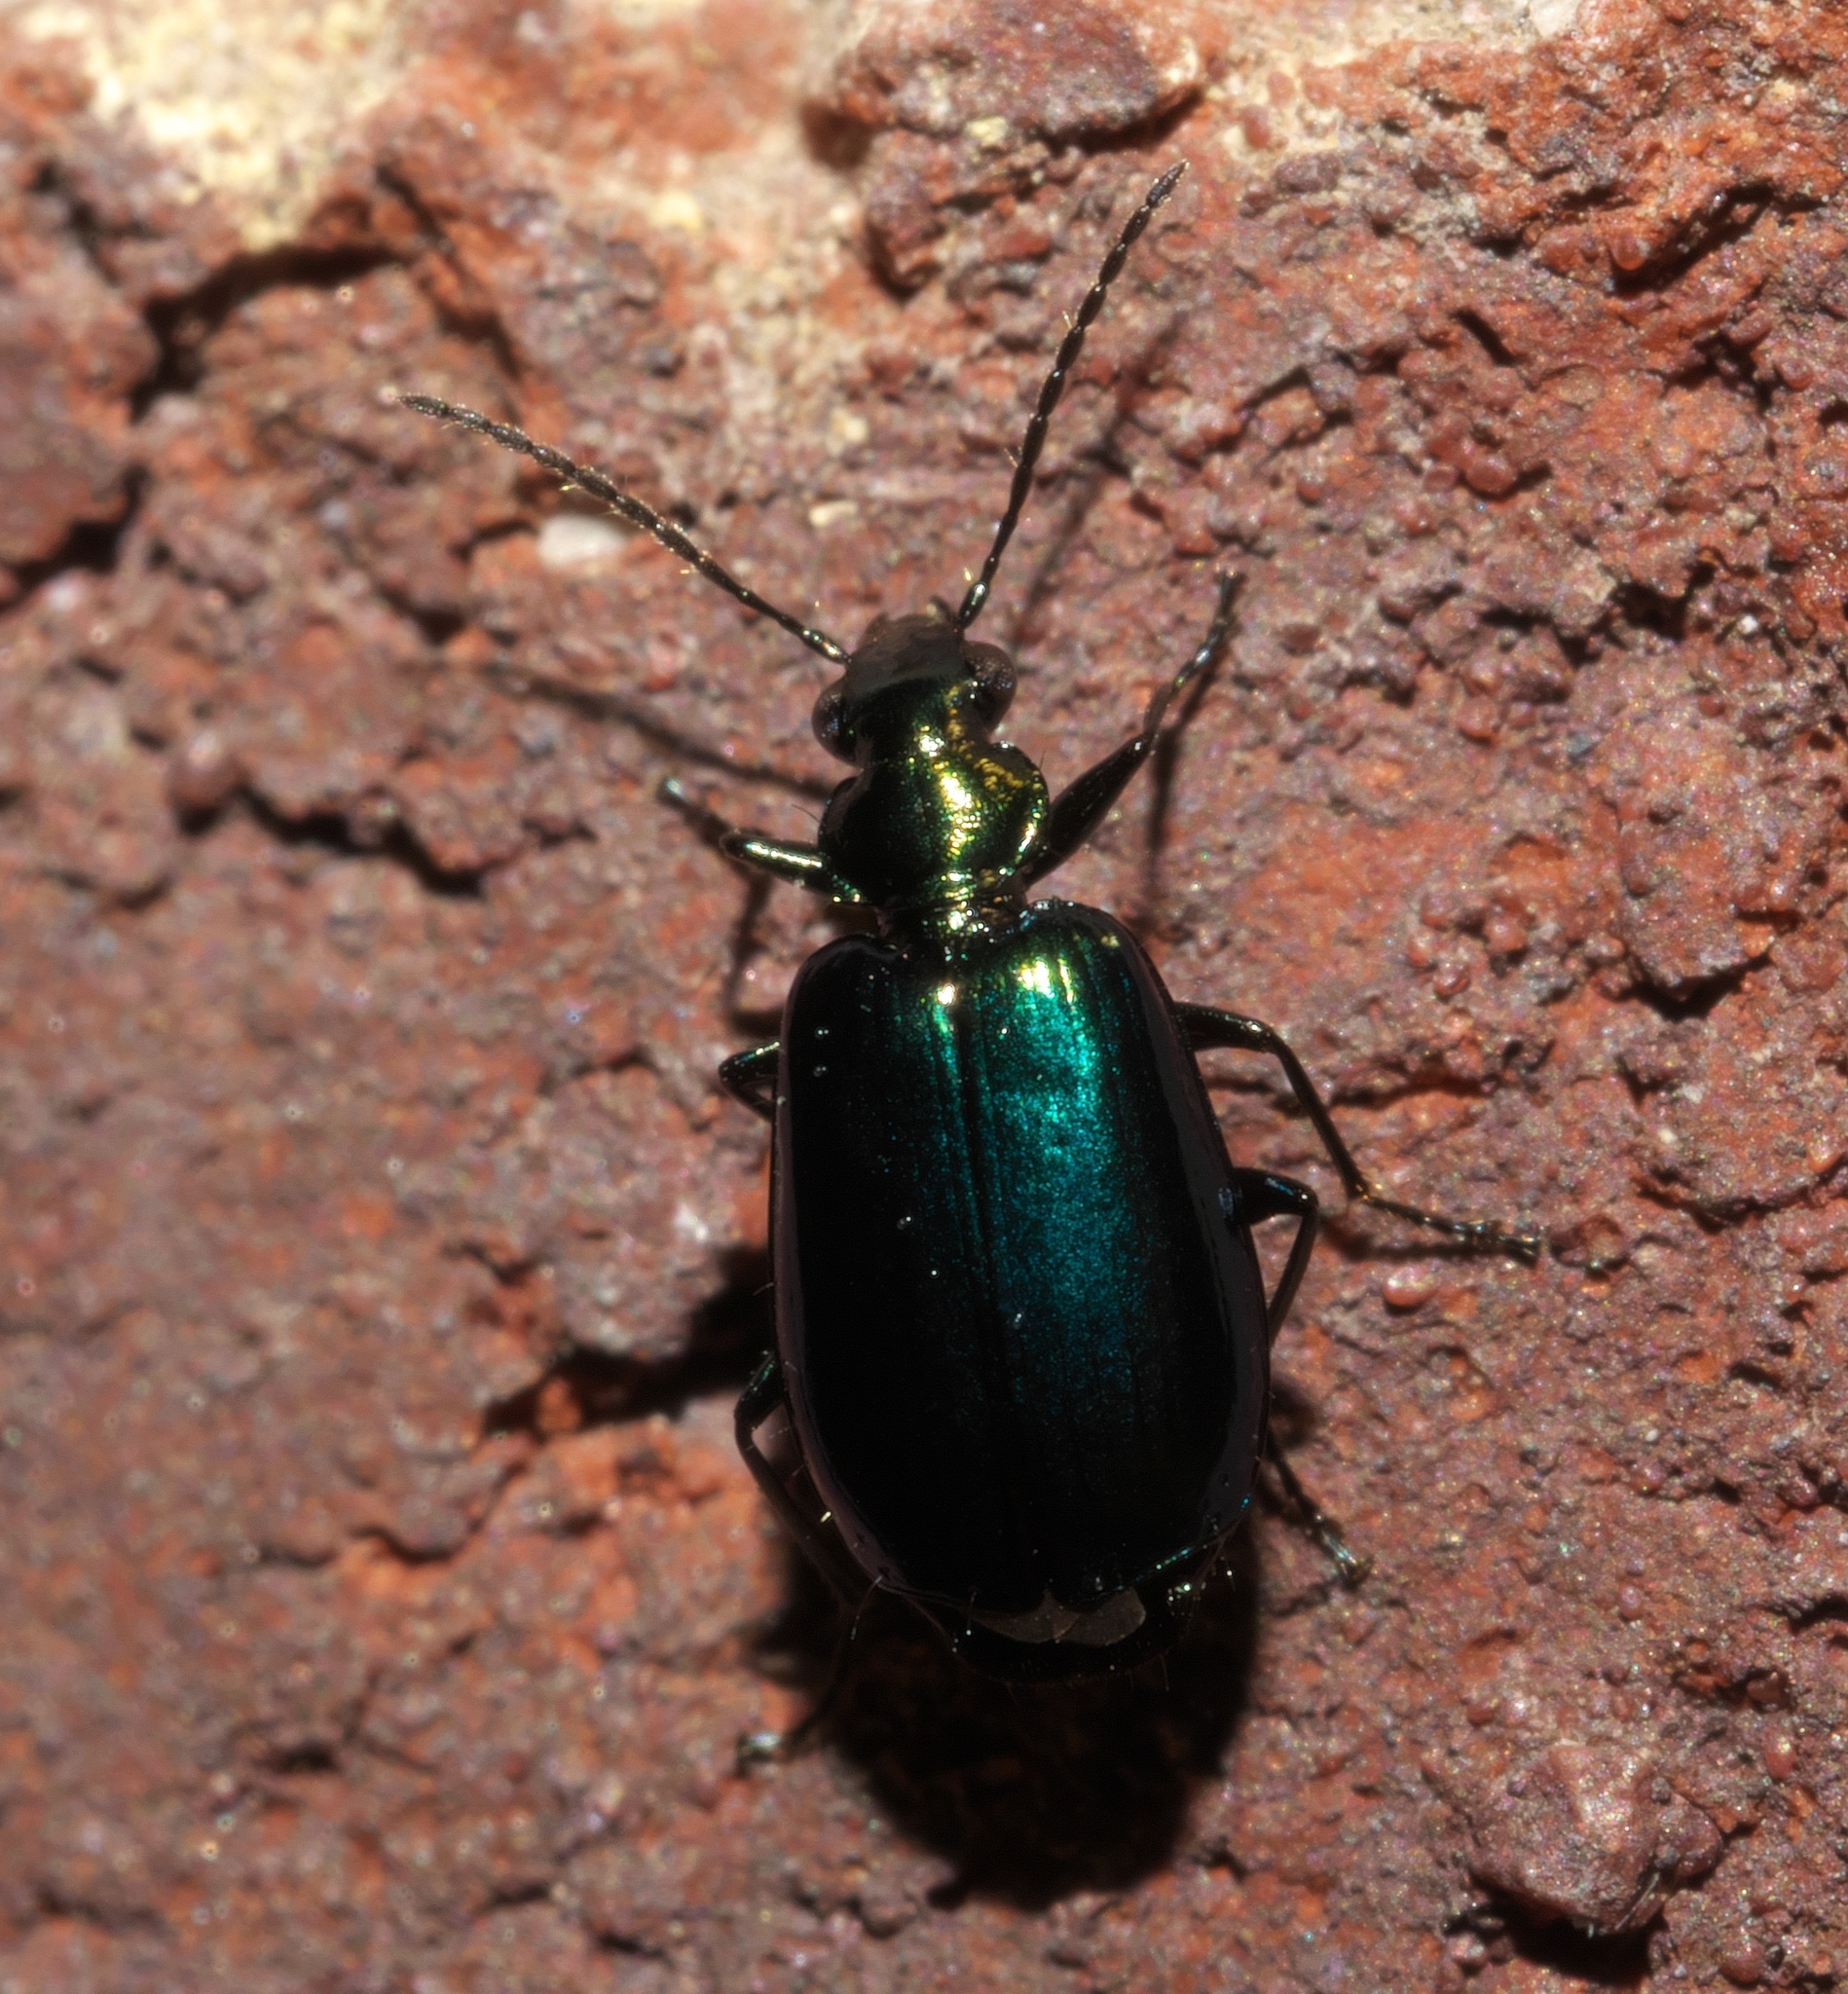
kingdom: Animalia
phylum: Arthropoda
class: Insecta
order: Coleoptera
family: Carabidae
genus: Lebia
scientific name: Lebia viridis
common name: Flower lebia beetle
